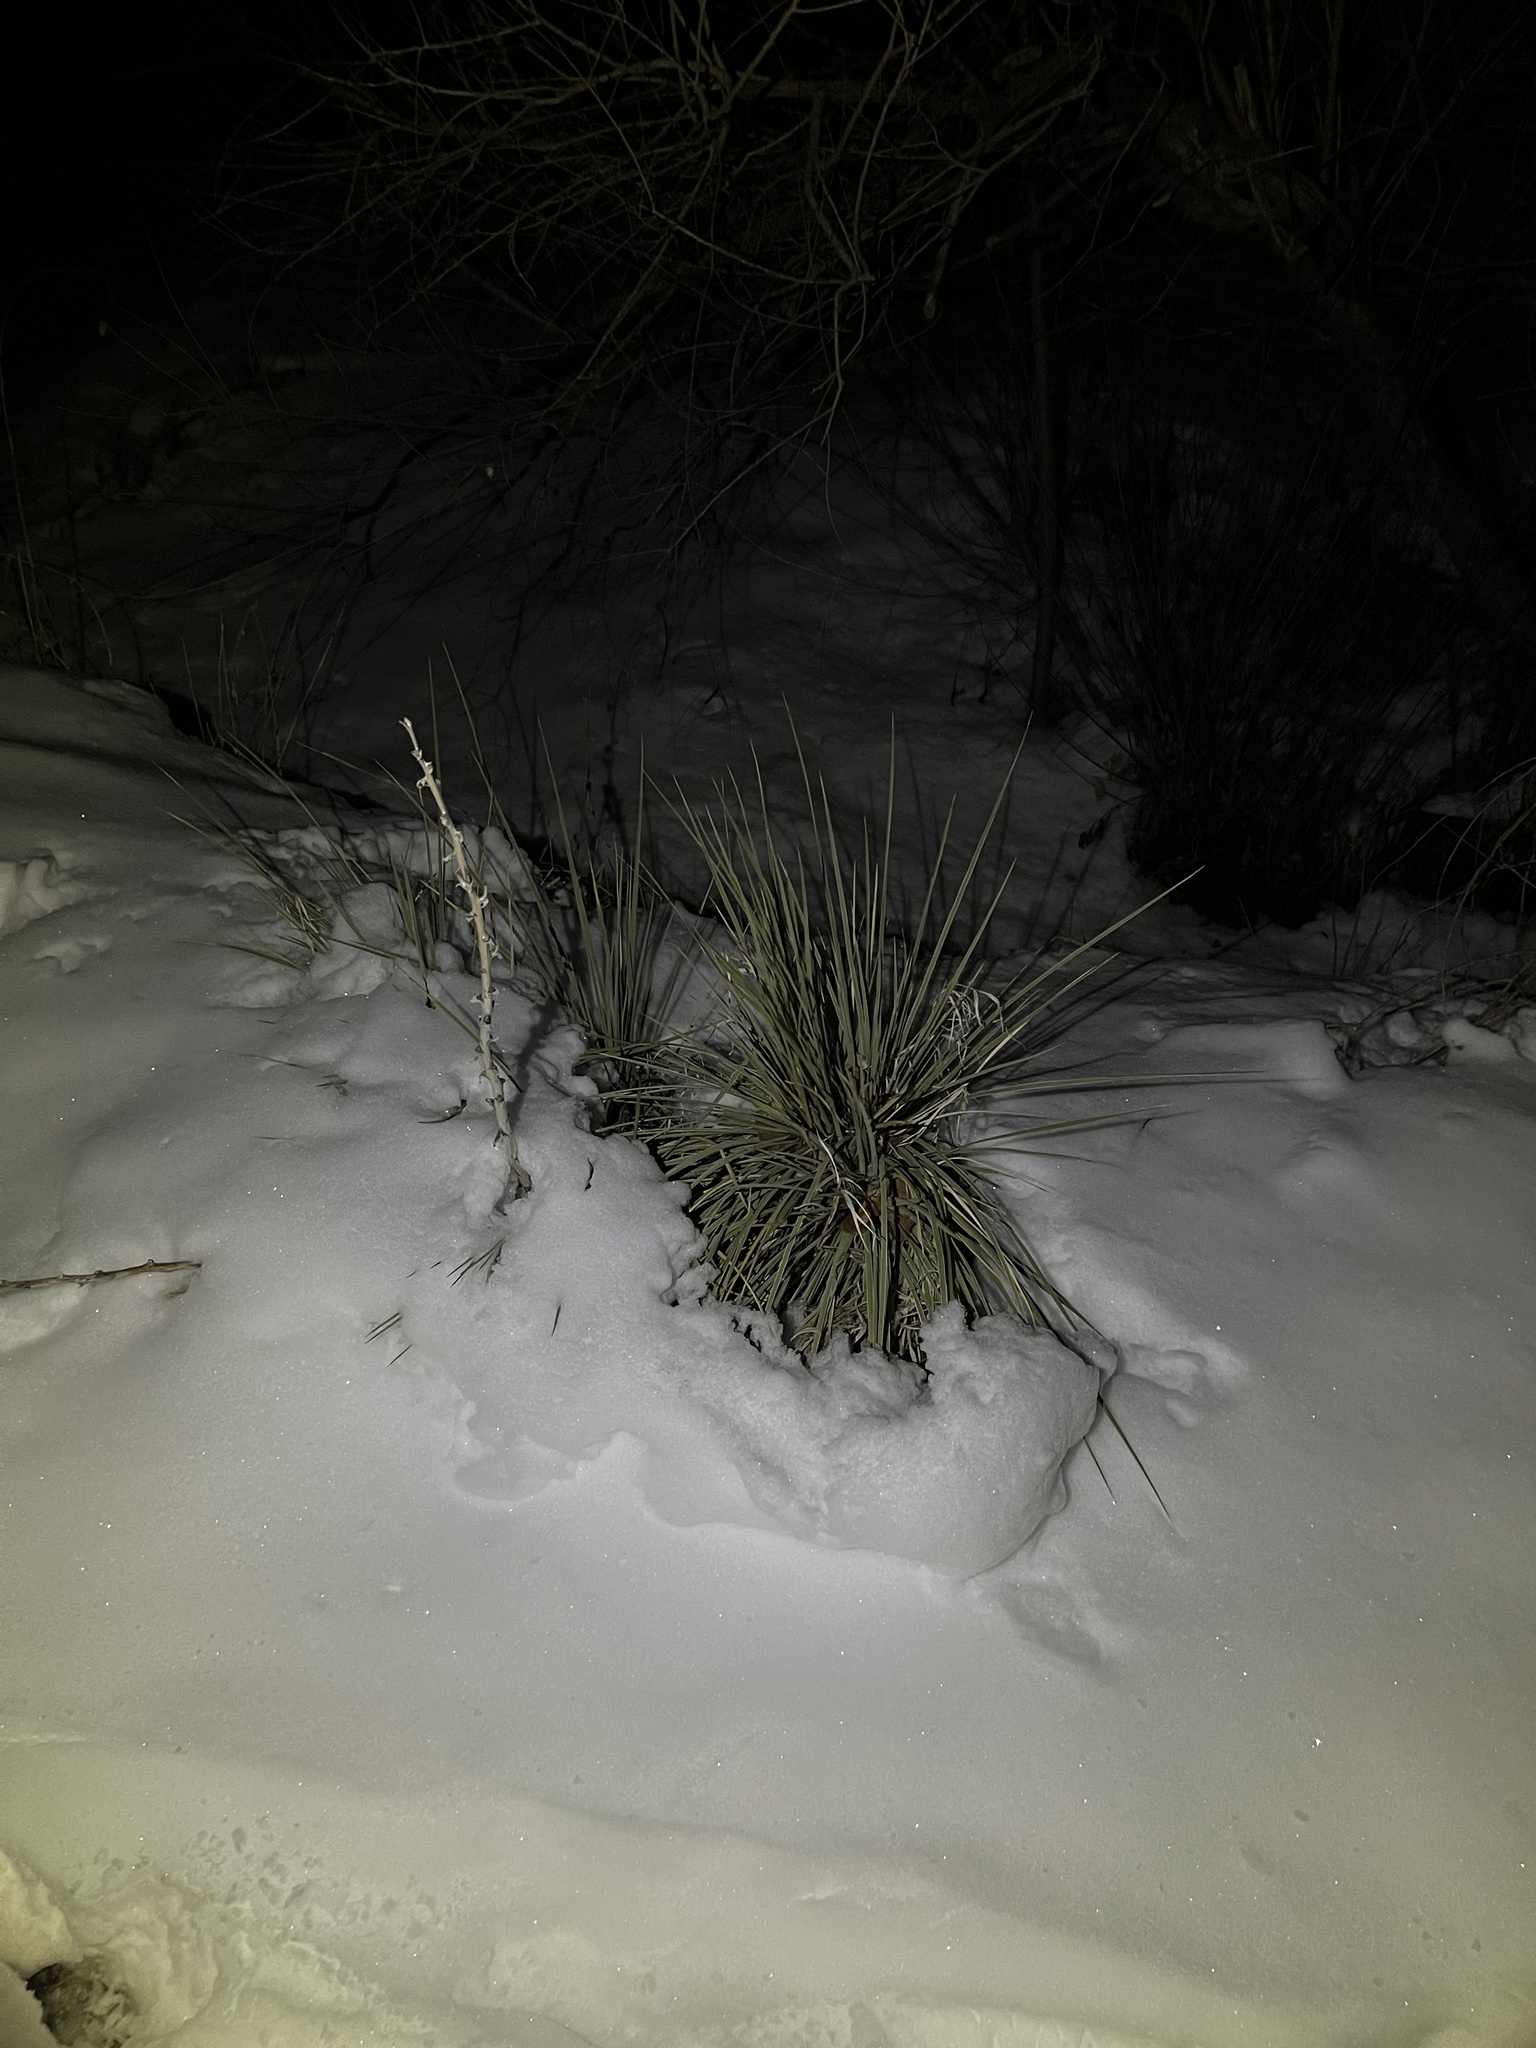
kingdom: Plantae
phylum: Tracheophyta
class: Liliopsida
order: Asparagales
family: Asparagaceae
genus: Yucca
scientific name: Yucca glauca
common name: Great plains yucca
